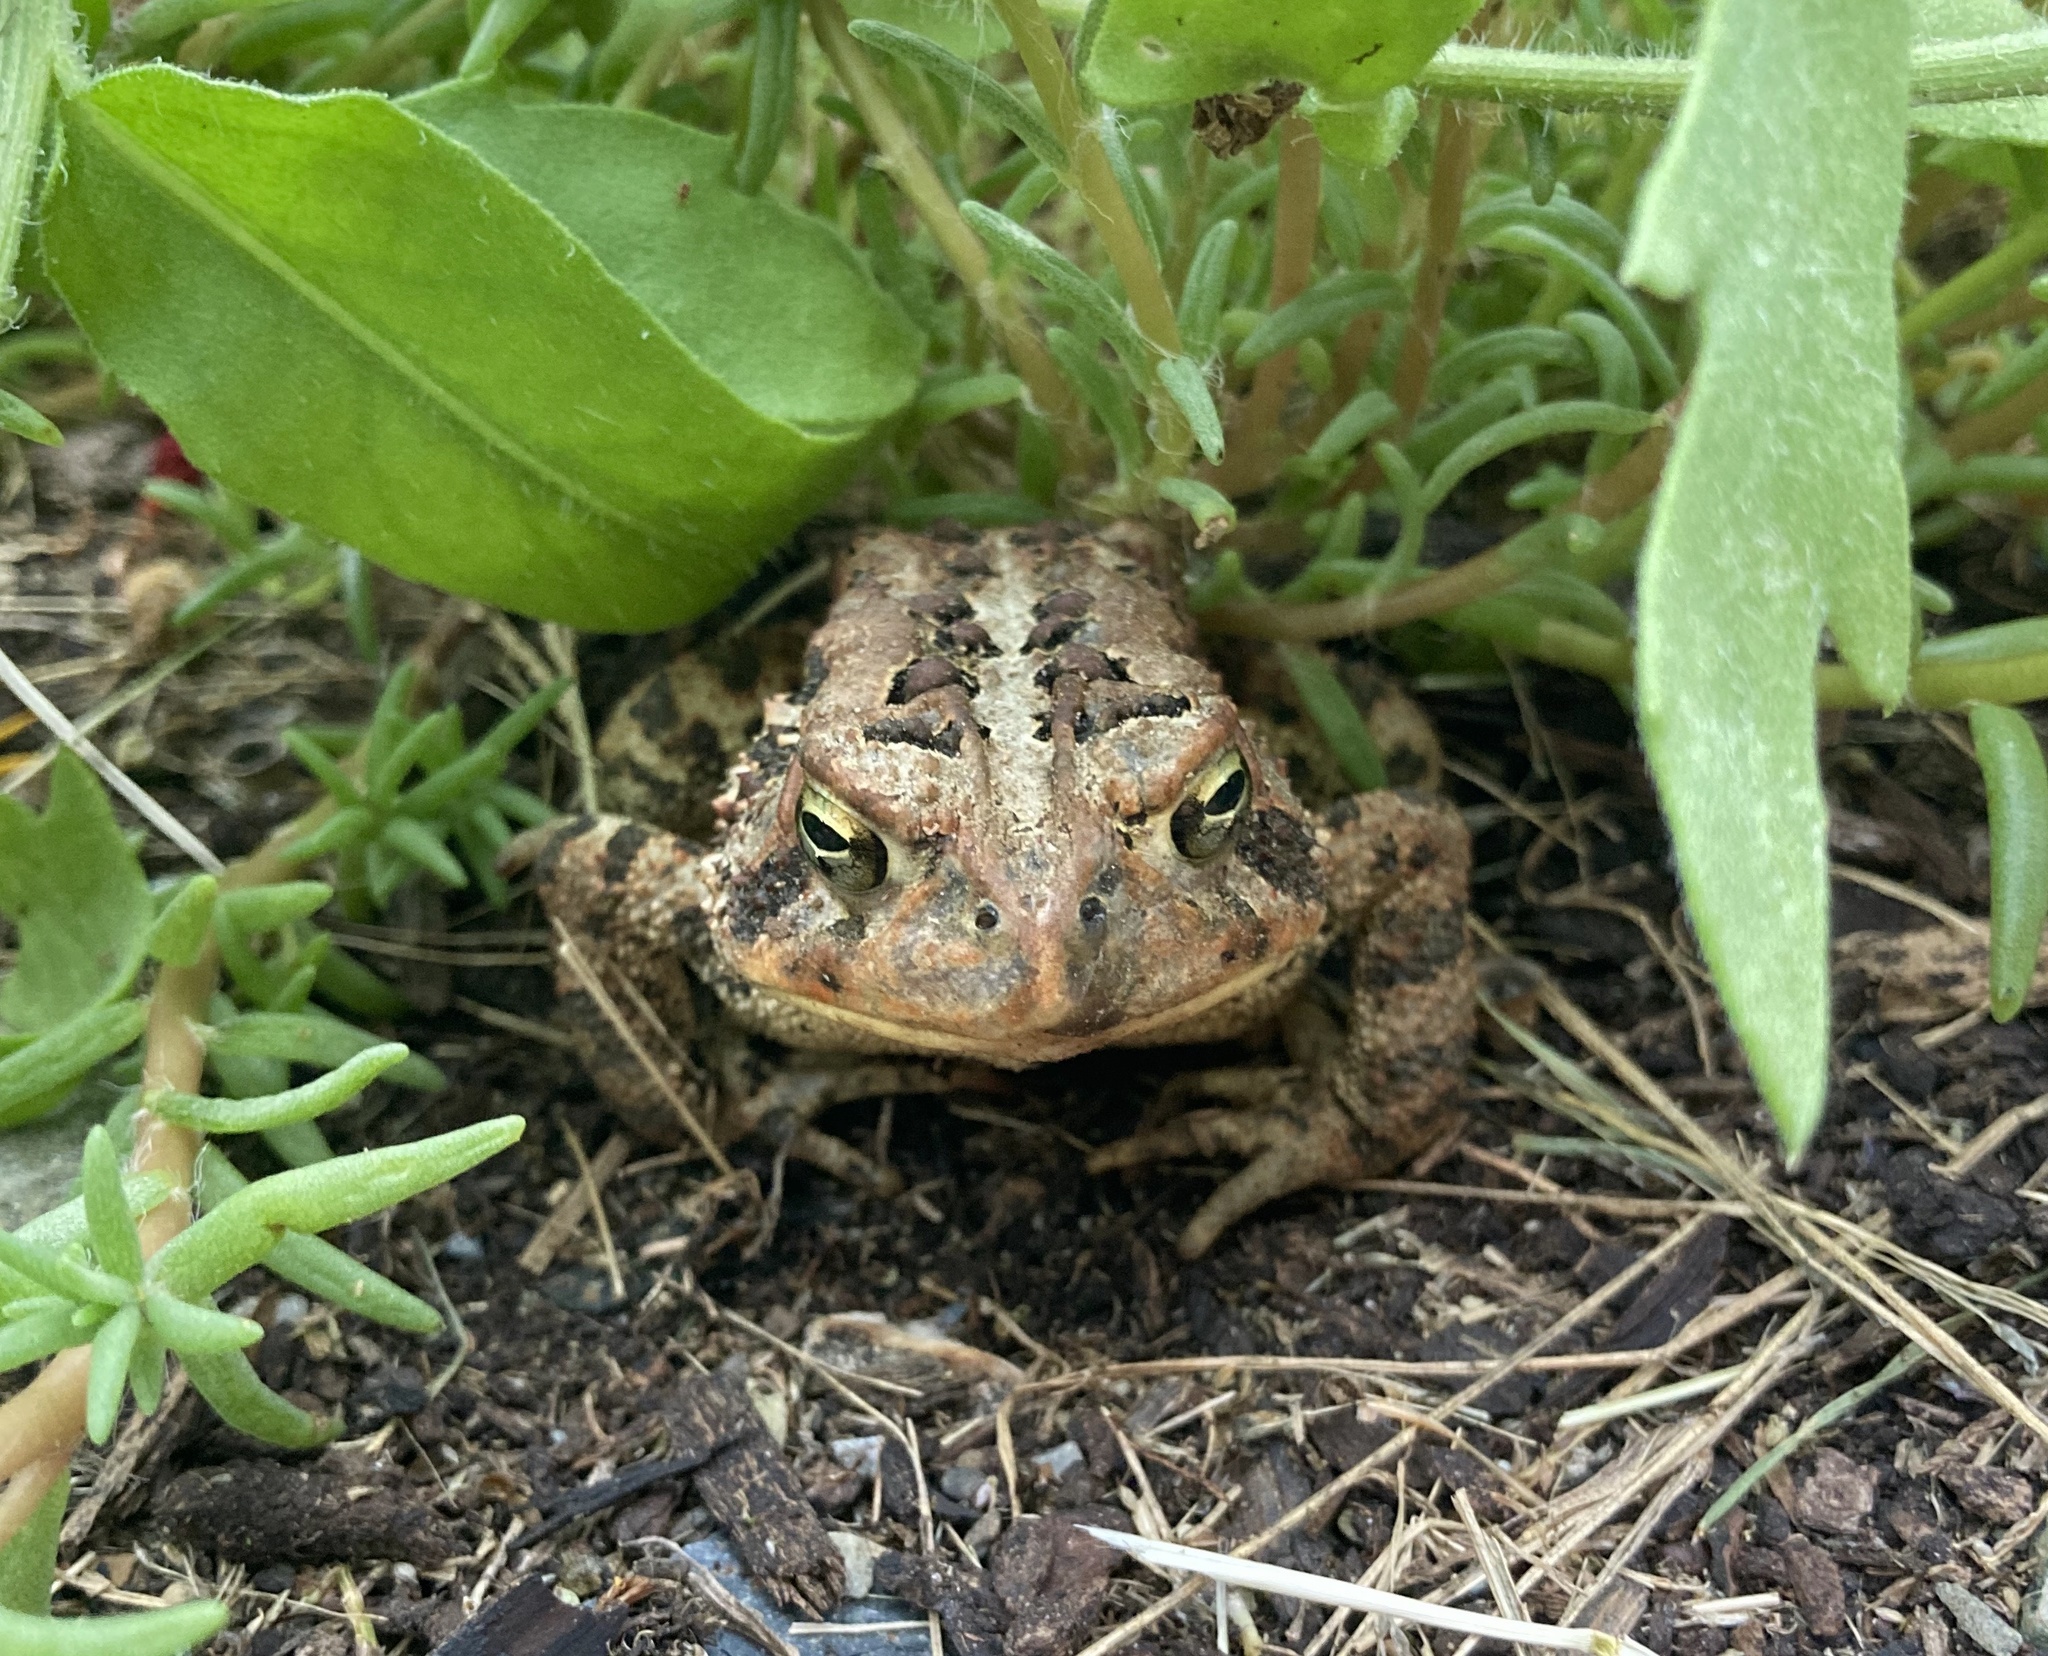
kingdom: Animalia
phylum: Chordata
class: Amphibia
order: Anura
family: Bufonidae
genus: Anaxyrus
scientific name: Anaxyrus americanus
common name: American toad
